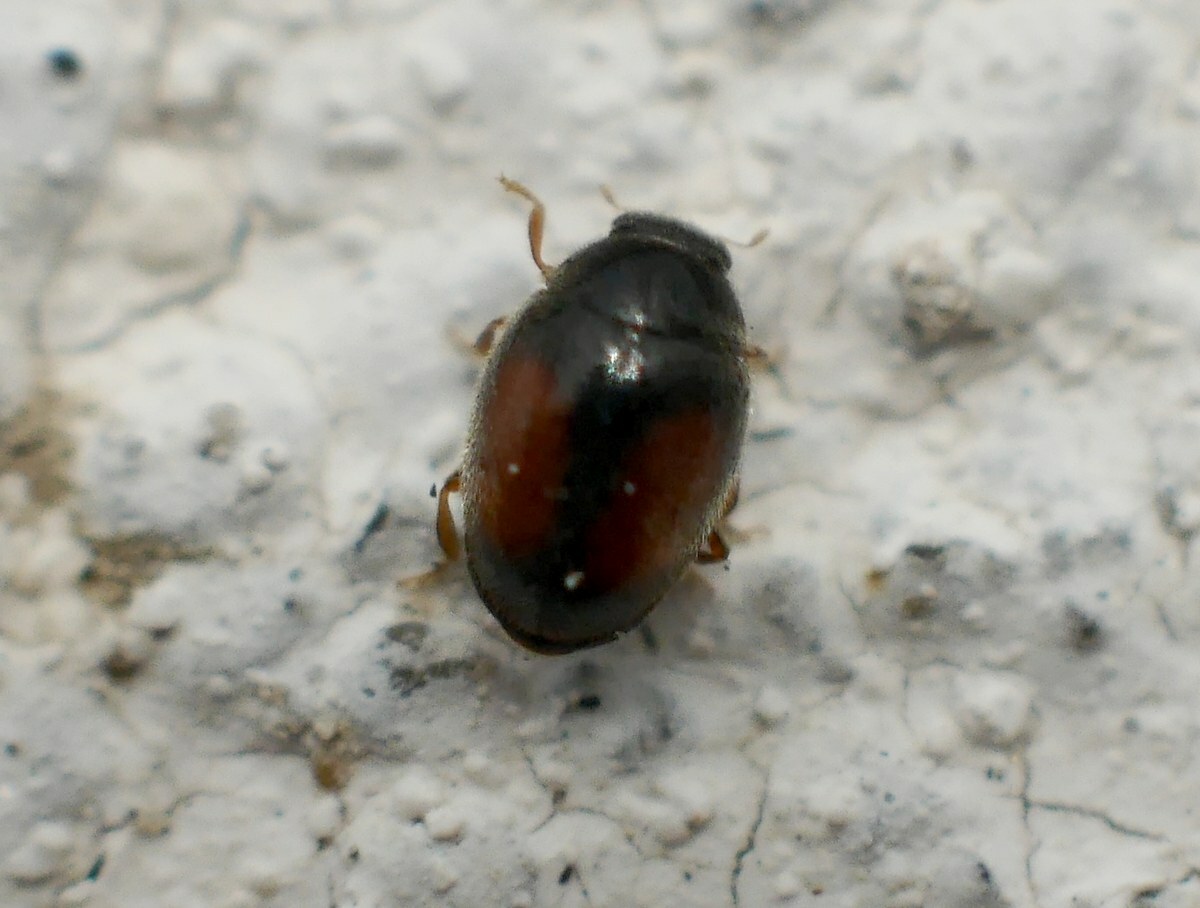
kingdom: Animalia
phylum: Arthropoda
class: Insecta
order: Coleoptera
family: Coccinellidae
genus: Scymnus
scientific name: Scymnus flagellisiphonatus
